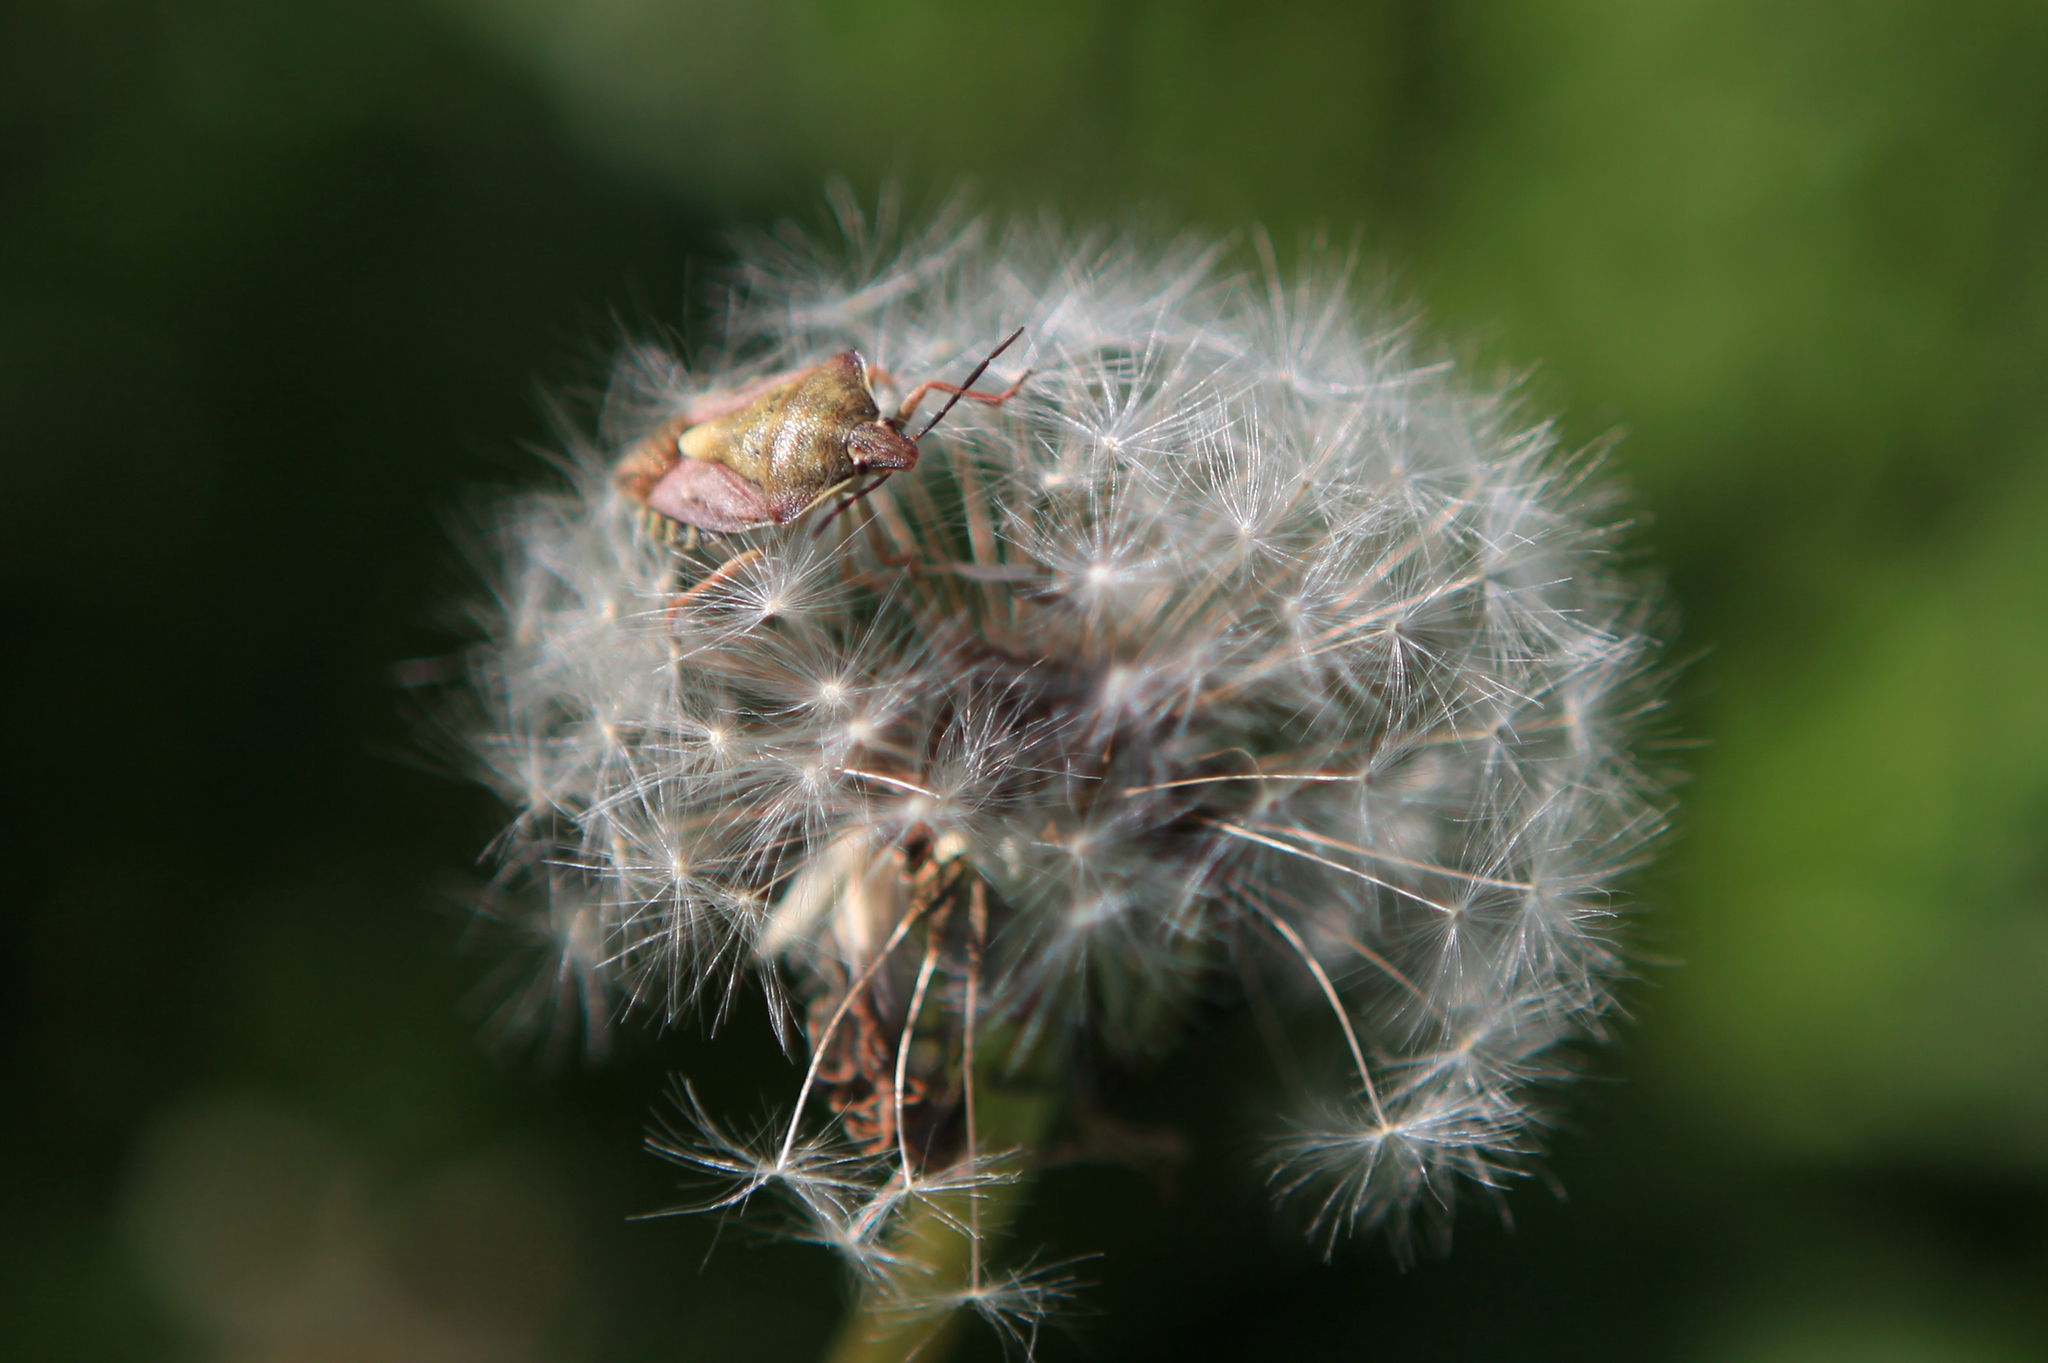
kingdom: Animalia
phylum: Arthropoda
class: Insecta
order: Hemiptera
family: Pentatomidae
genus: Carpocoris
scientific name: Carpocoris purpureipennis
